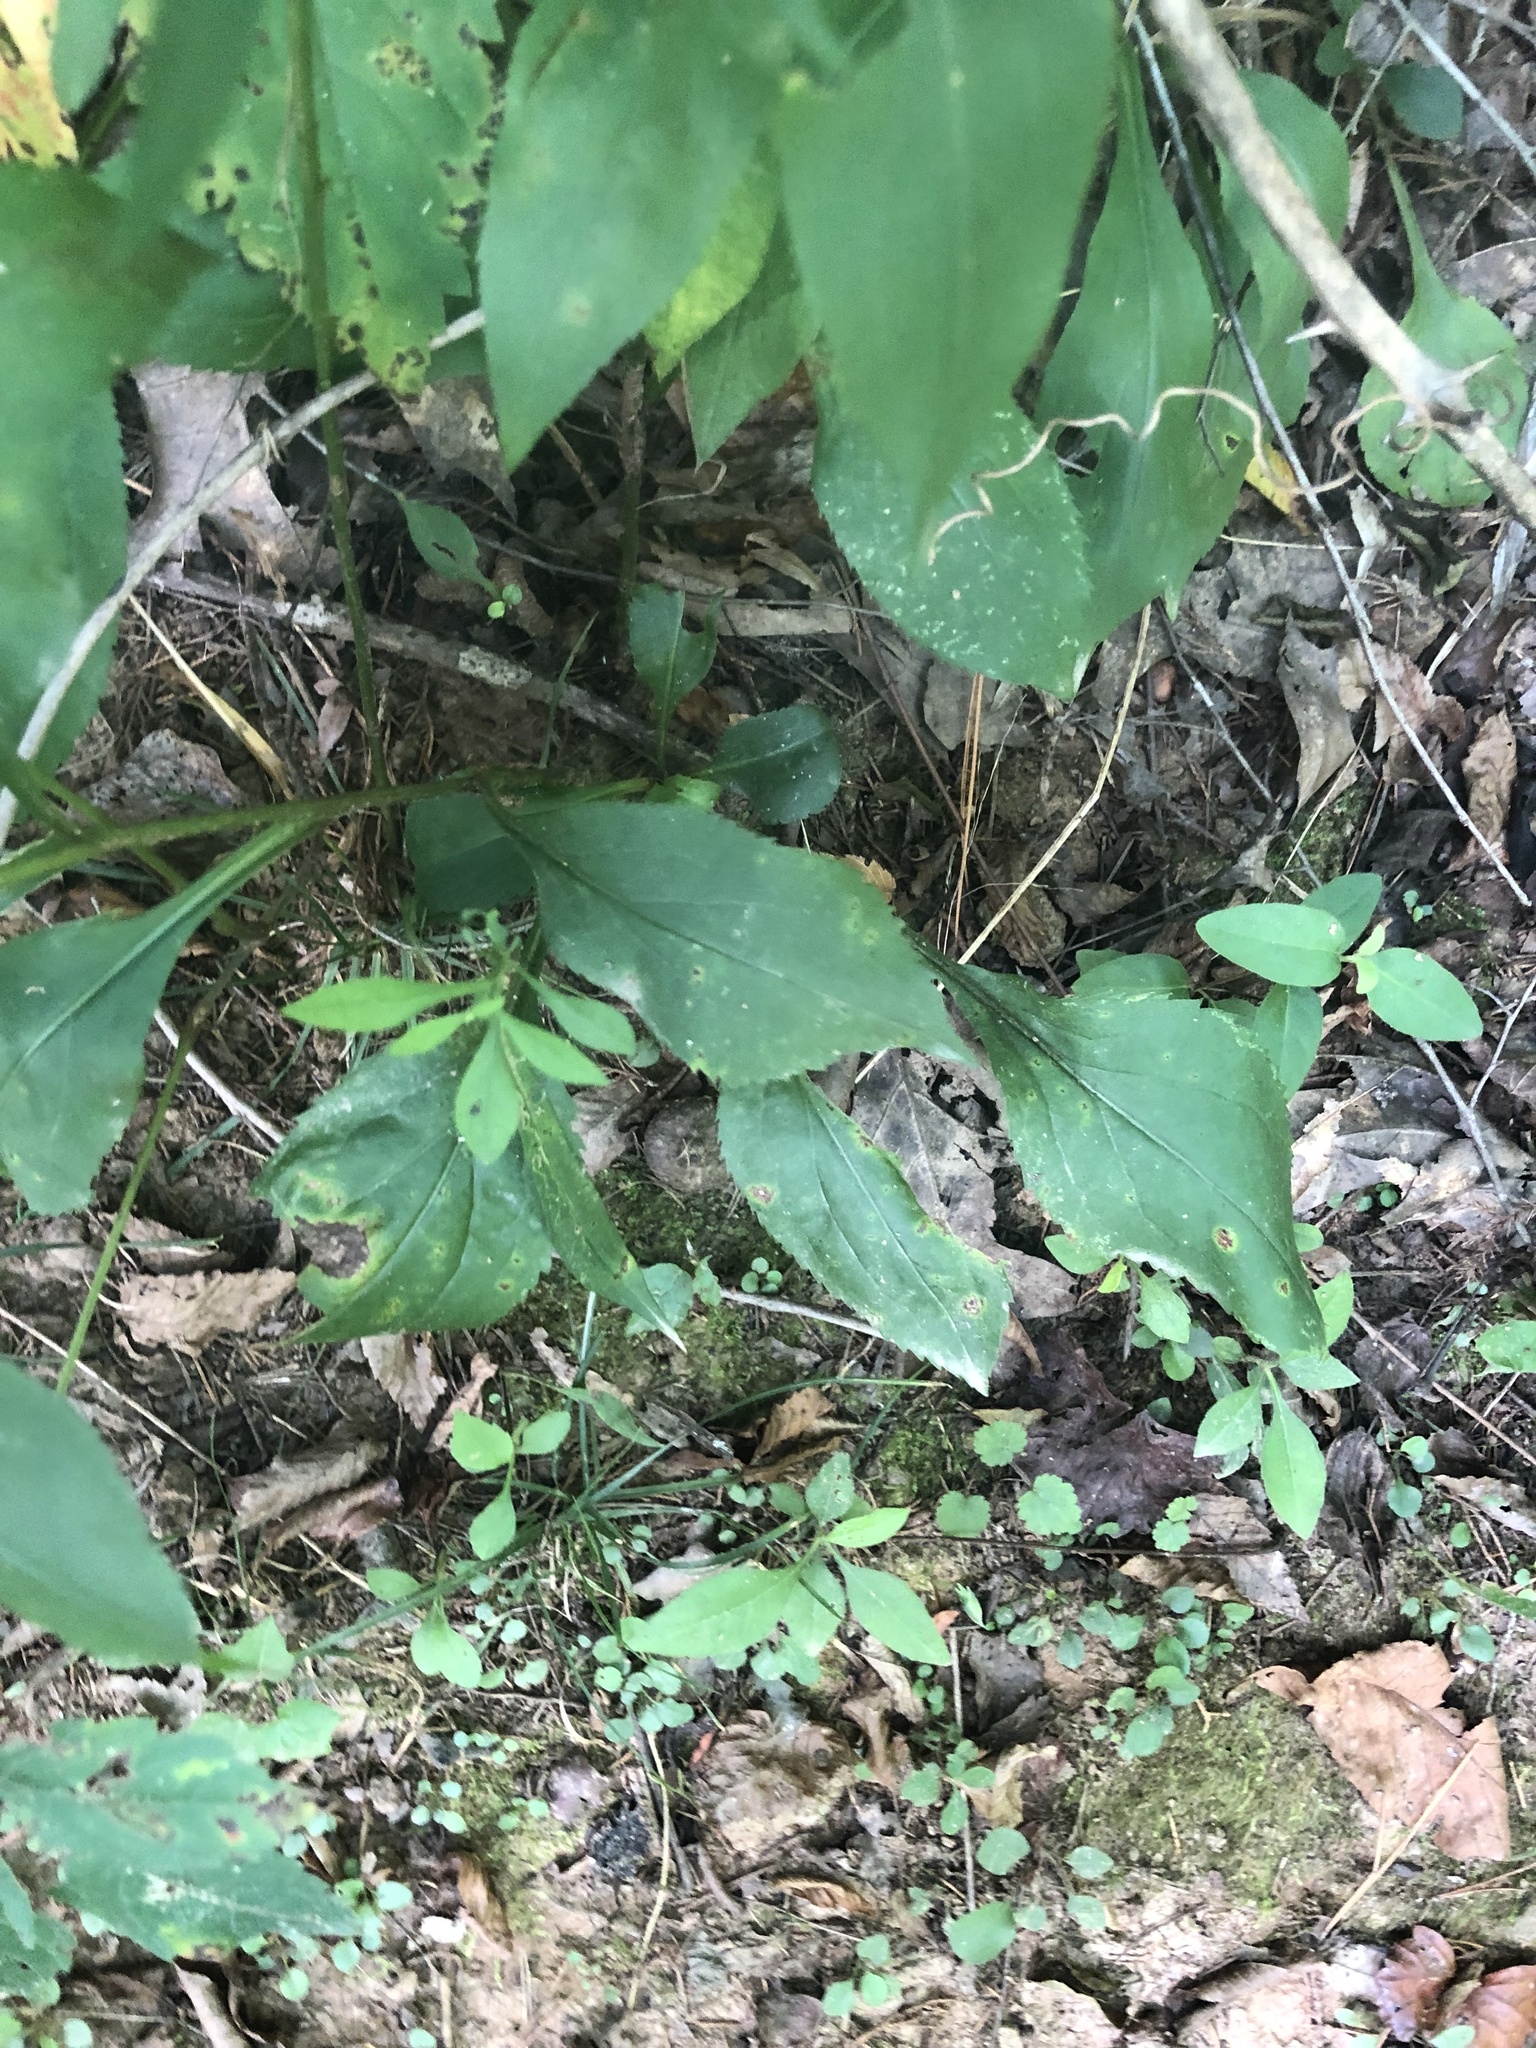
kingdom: Plantae
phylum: Tracheophyta
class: Magnoliopsida
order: Asterales
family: Asteraceae
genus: Solidago
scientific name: Solidago vaseyi
